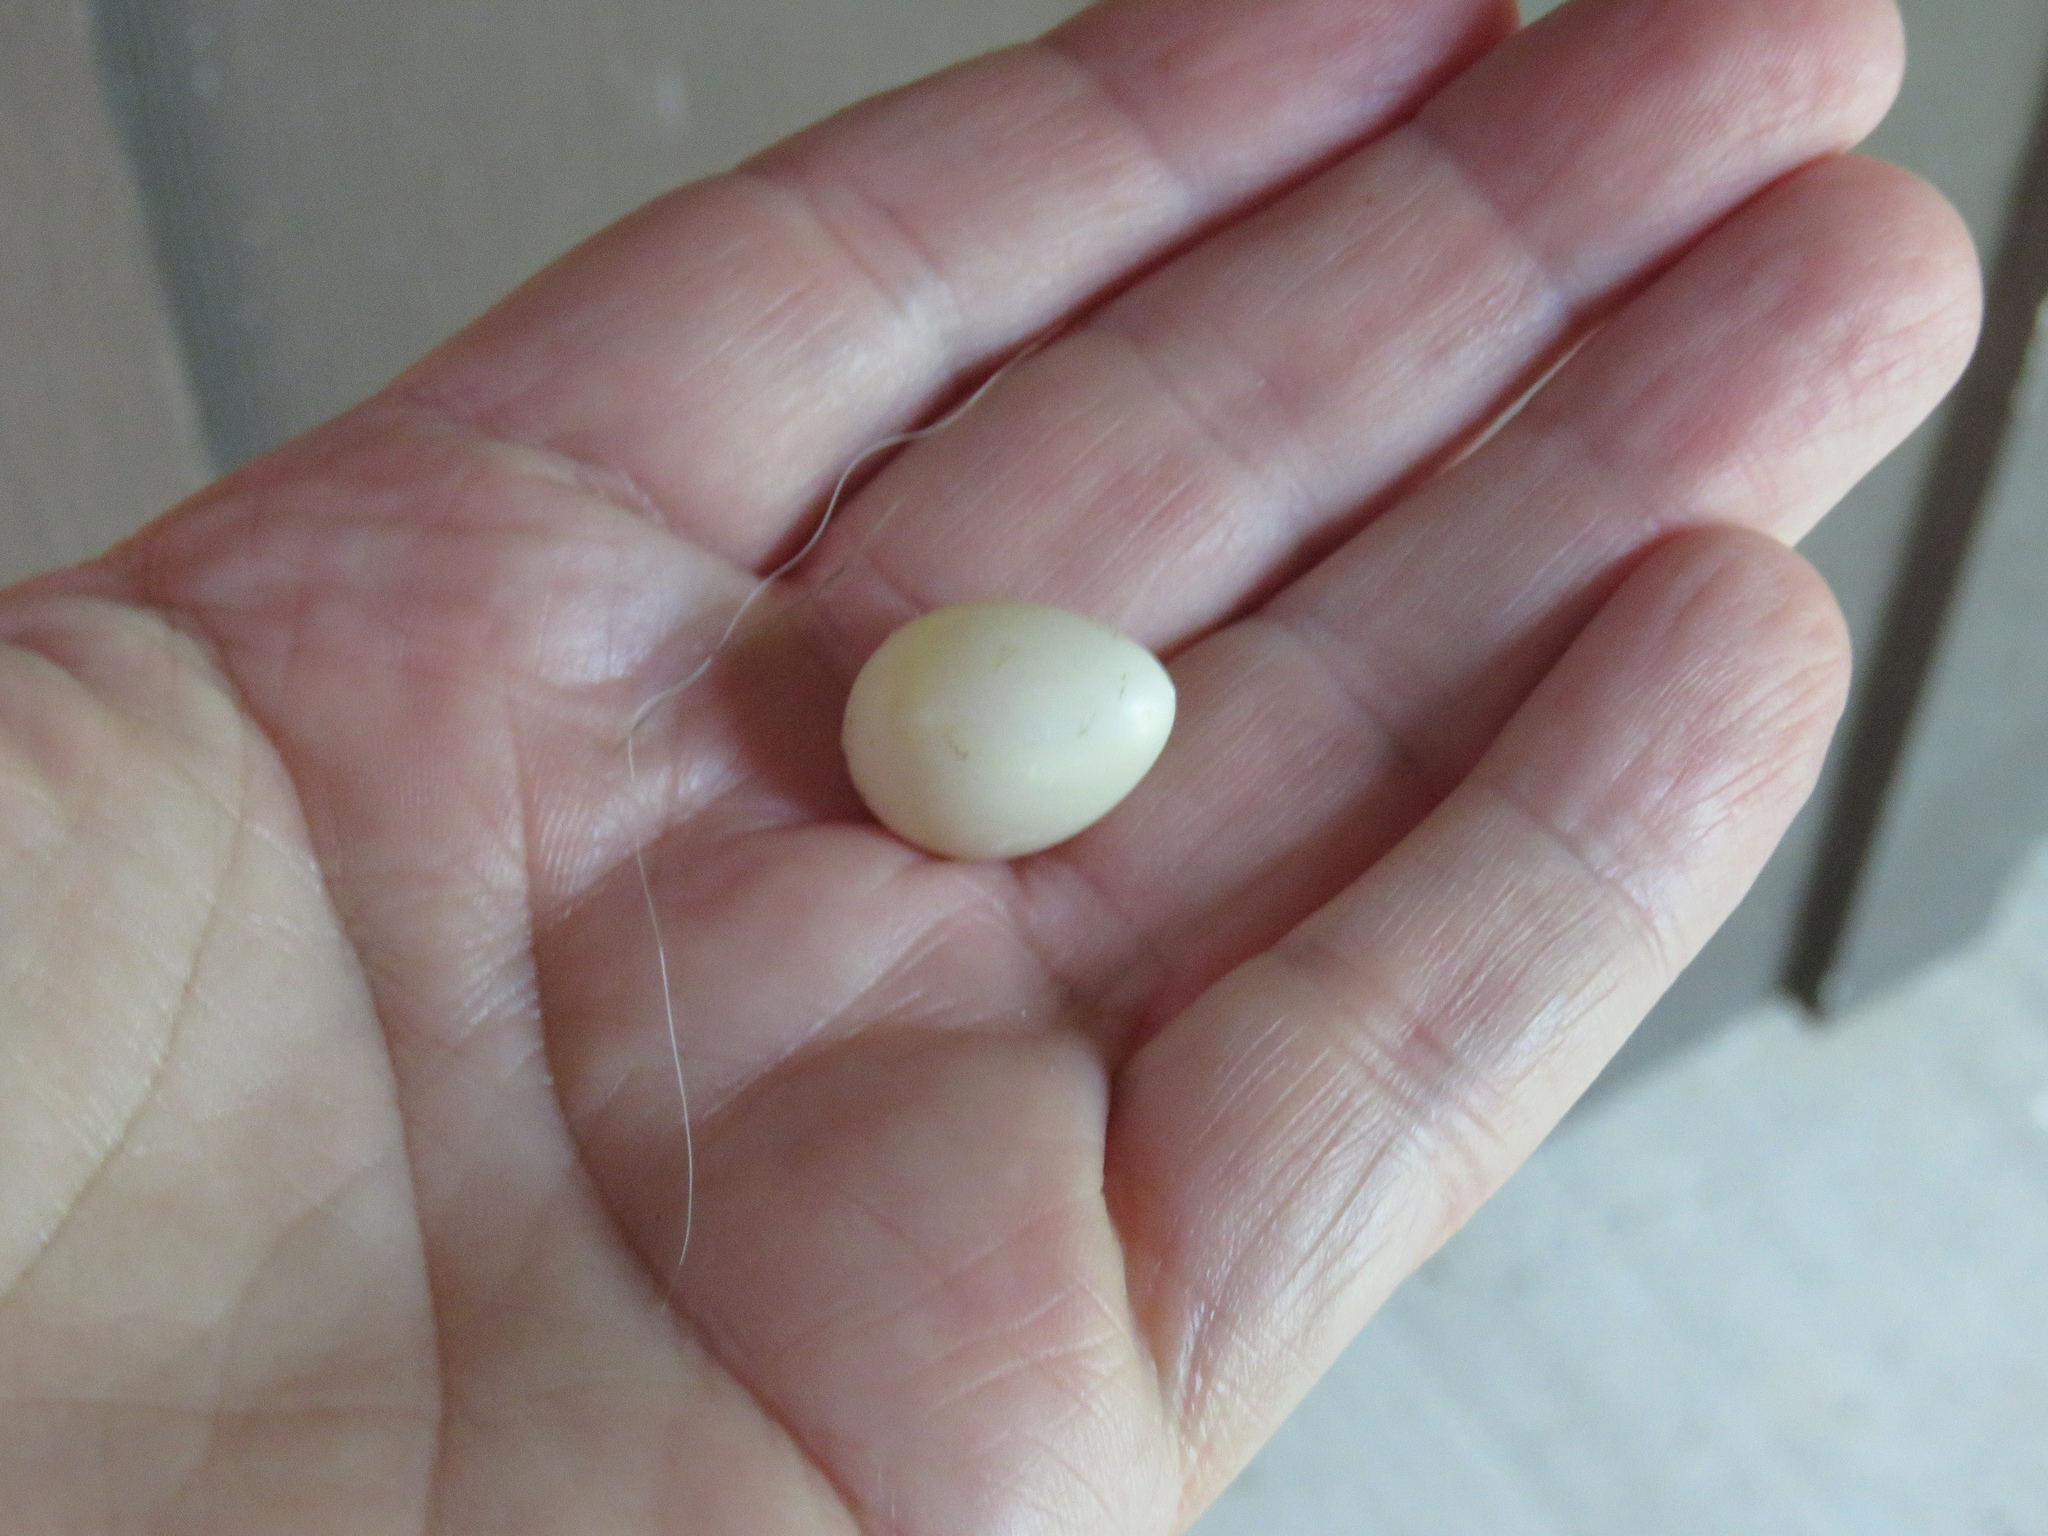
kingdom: Animalia
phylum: Chordata
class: Aves
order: Passeriformes
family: Tyrannidae
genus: Sayornis
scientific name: Sayornis phoebe
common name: Eastern phoebe
